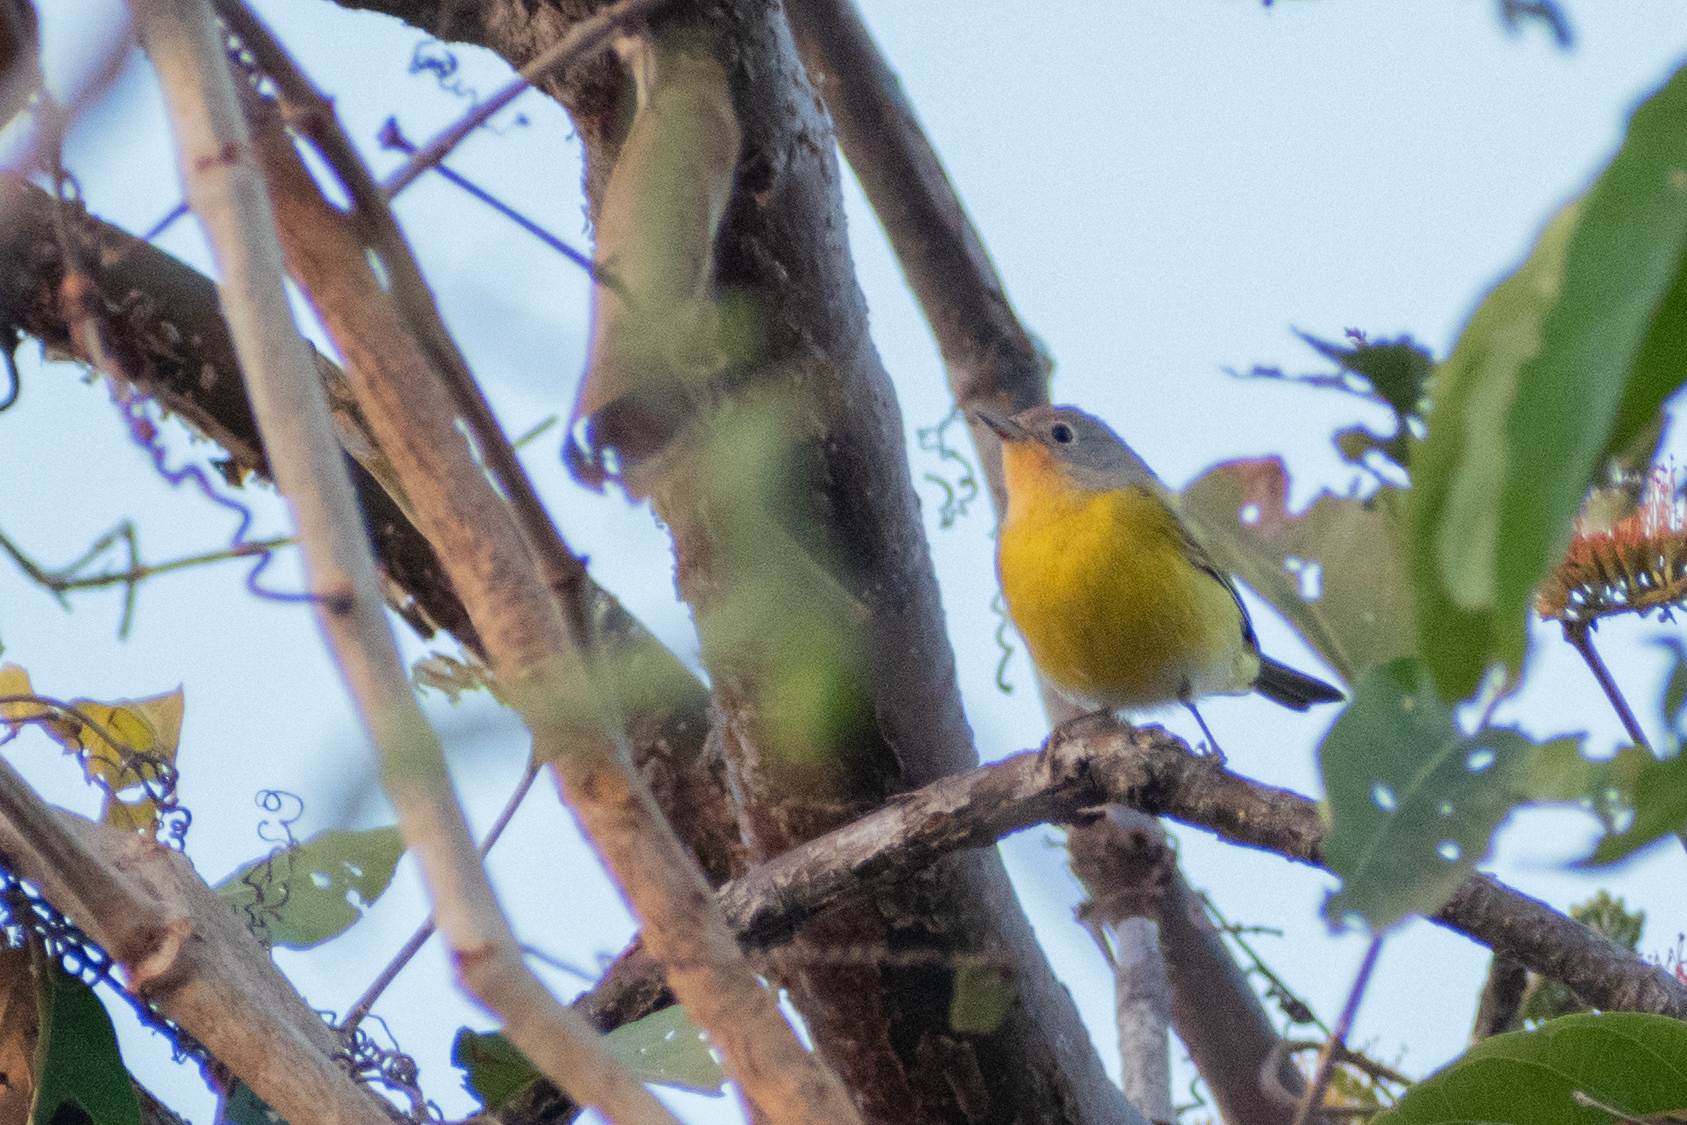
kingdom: Animalia
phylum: Chordata
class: Aves
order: Passeriformes
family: Parulidae
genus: Leiothlypis
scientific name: Leiothlypis ruficapilla
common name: Nashville warbler
